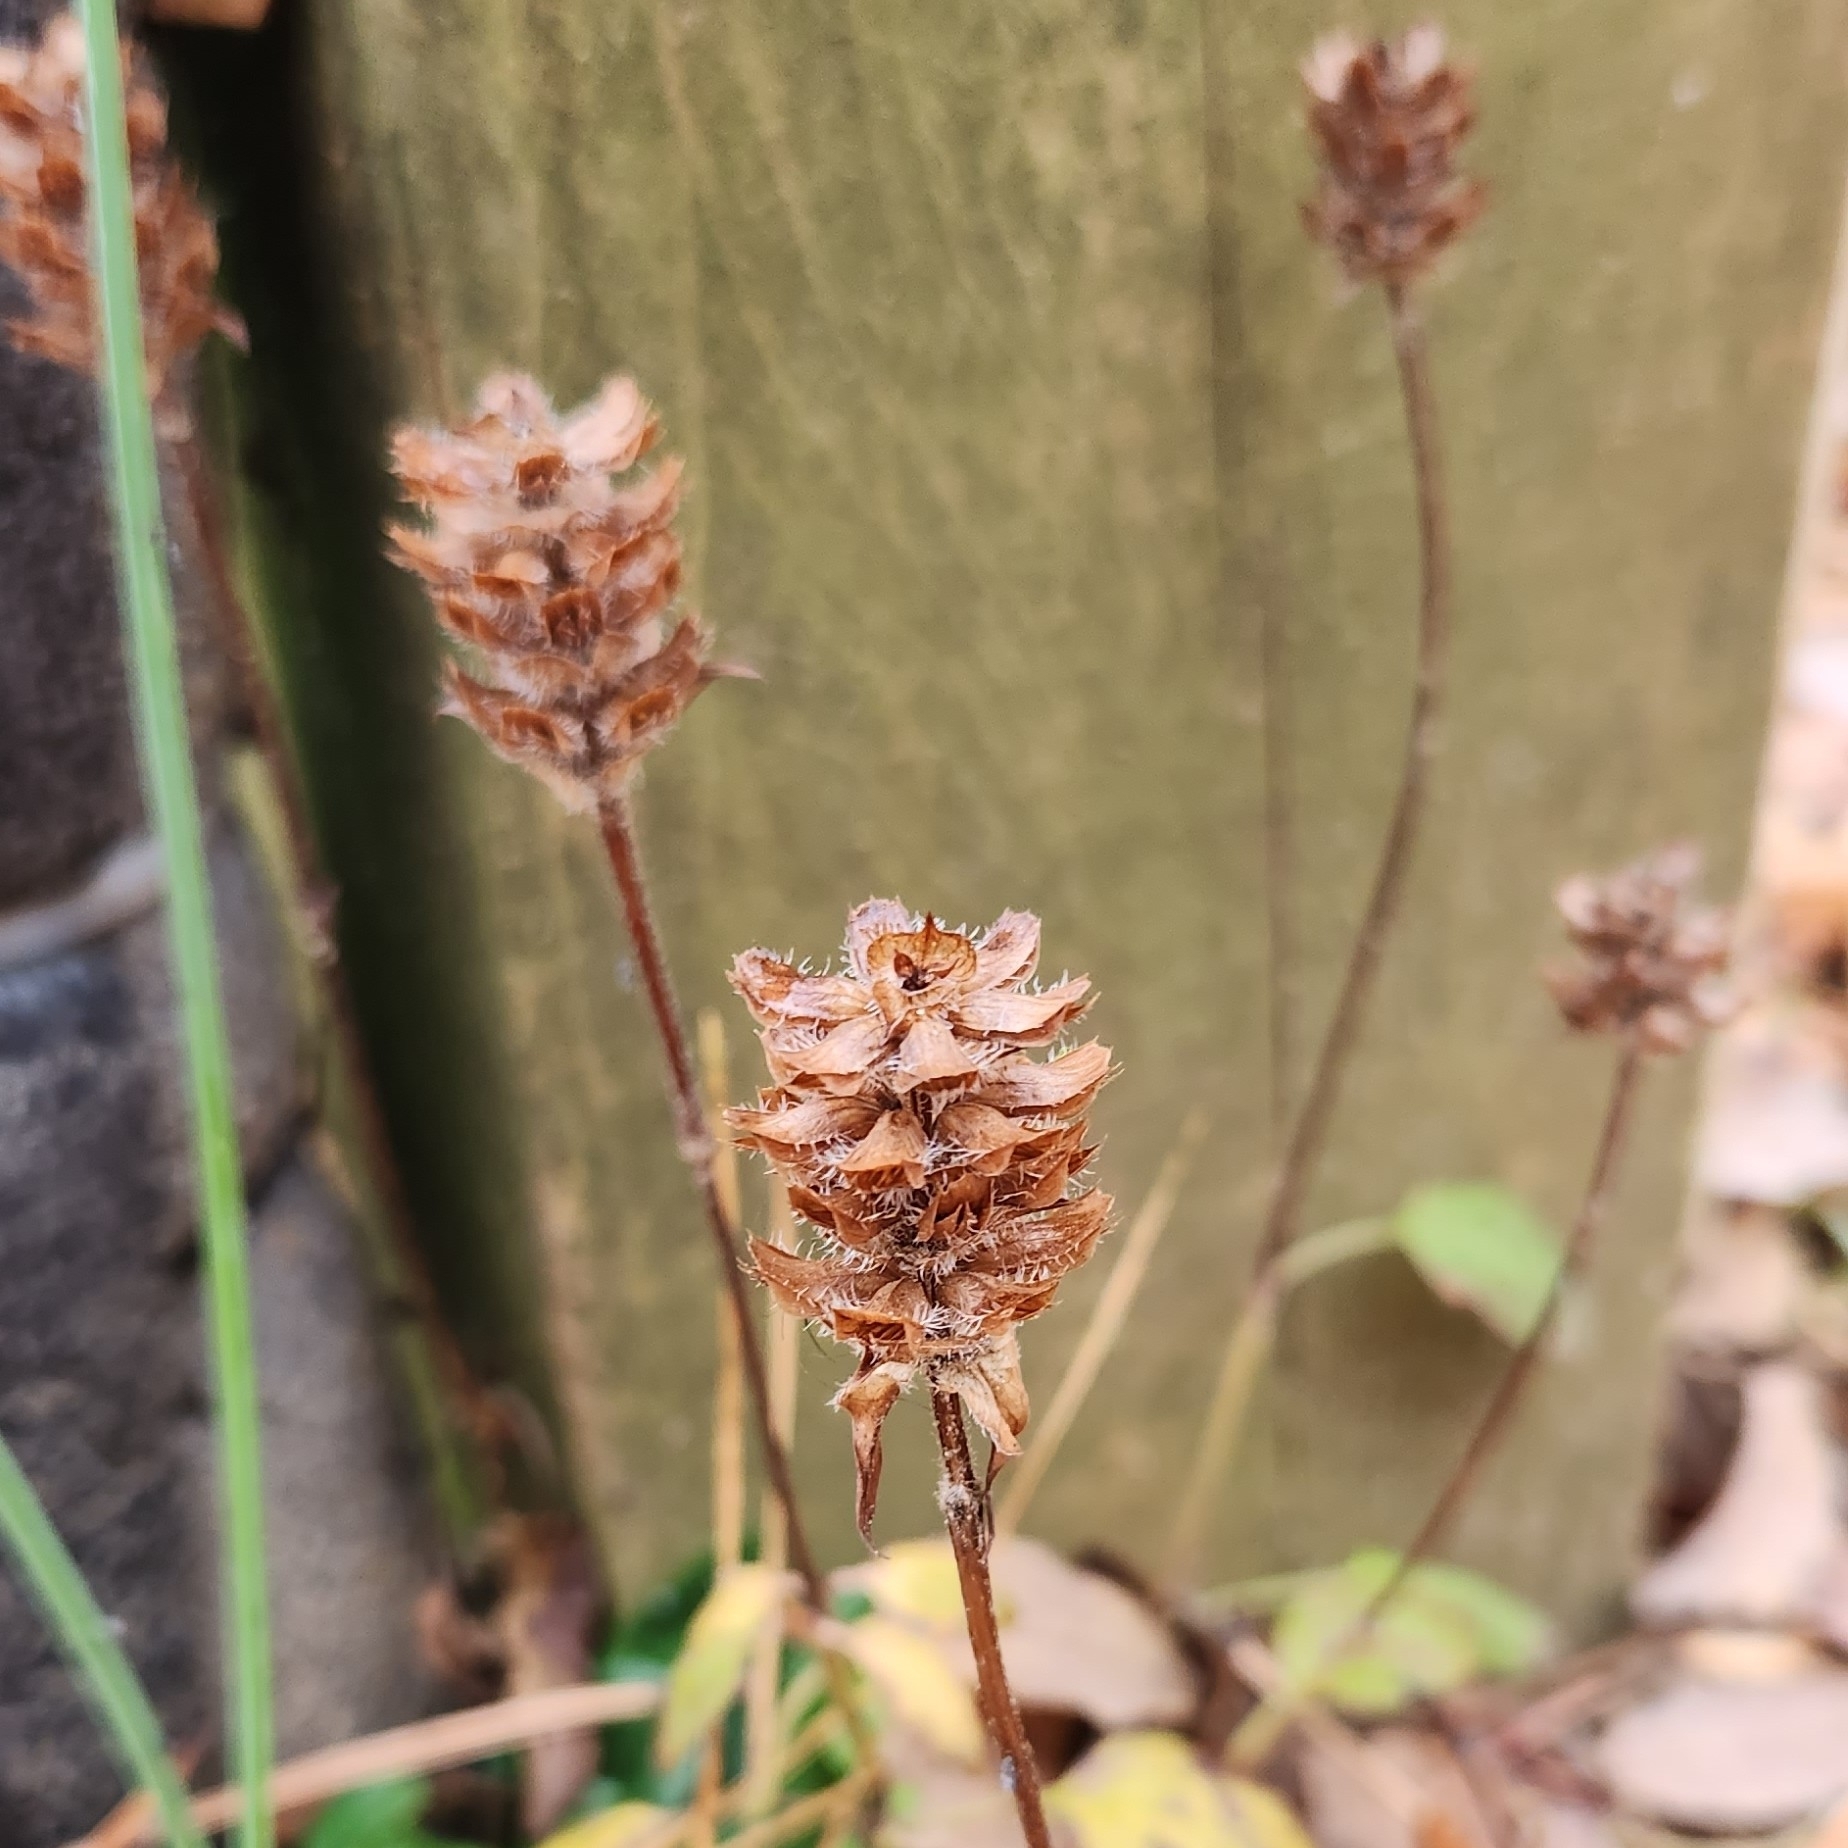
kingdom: Plantae
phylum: Tracheophyta
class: Magnoliopsida
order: Lamiales
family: Lamiaceae
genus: Prunella
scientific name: Prunella vulgaris
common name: Heal-all
